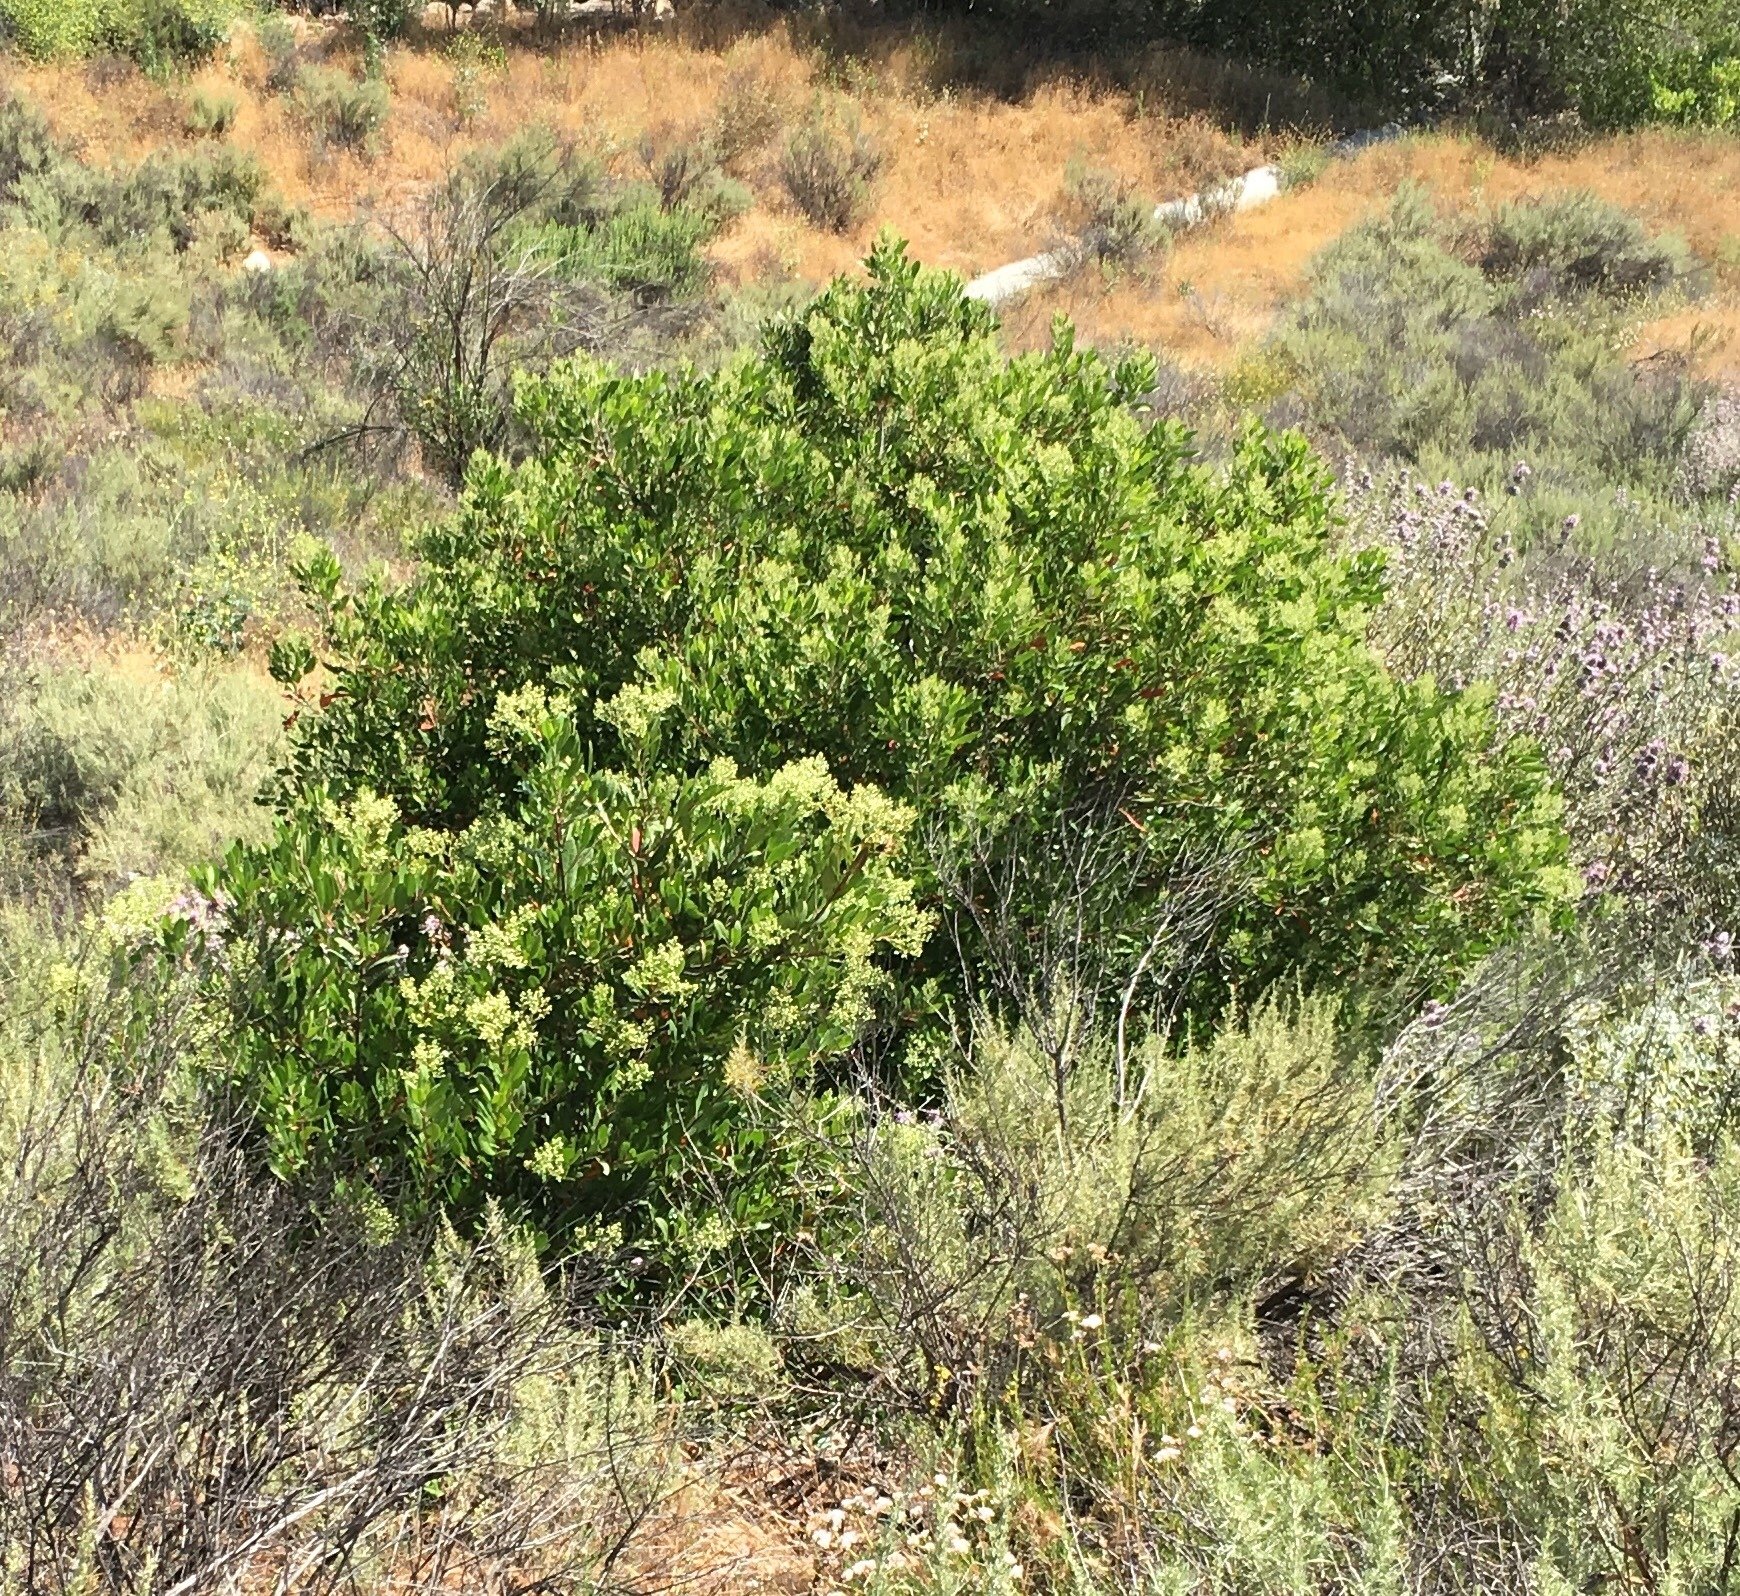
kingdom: Plantae
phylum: Tracheophyta
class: Magnoliopsida
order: Rosales
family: Rosaceae
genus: Heteromeles
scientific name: Heteromeles arbutifolia
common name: California-holly
